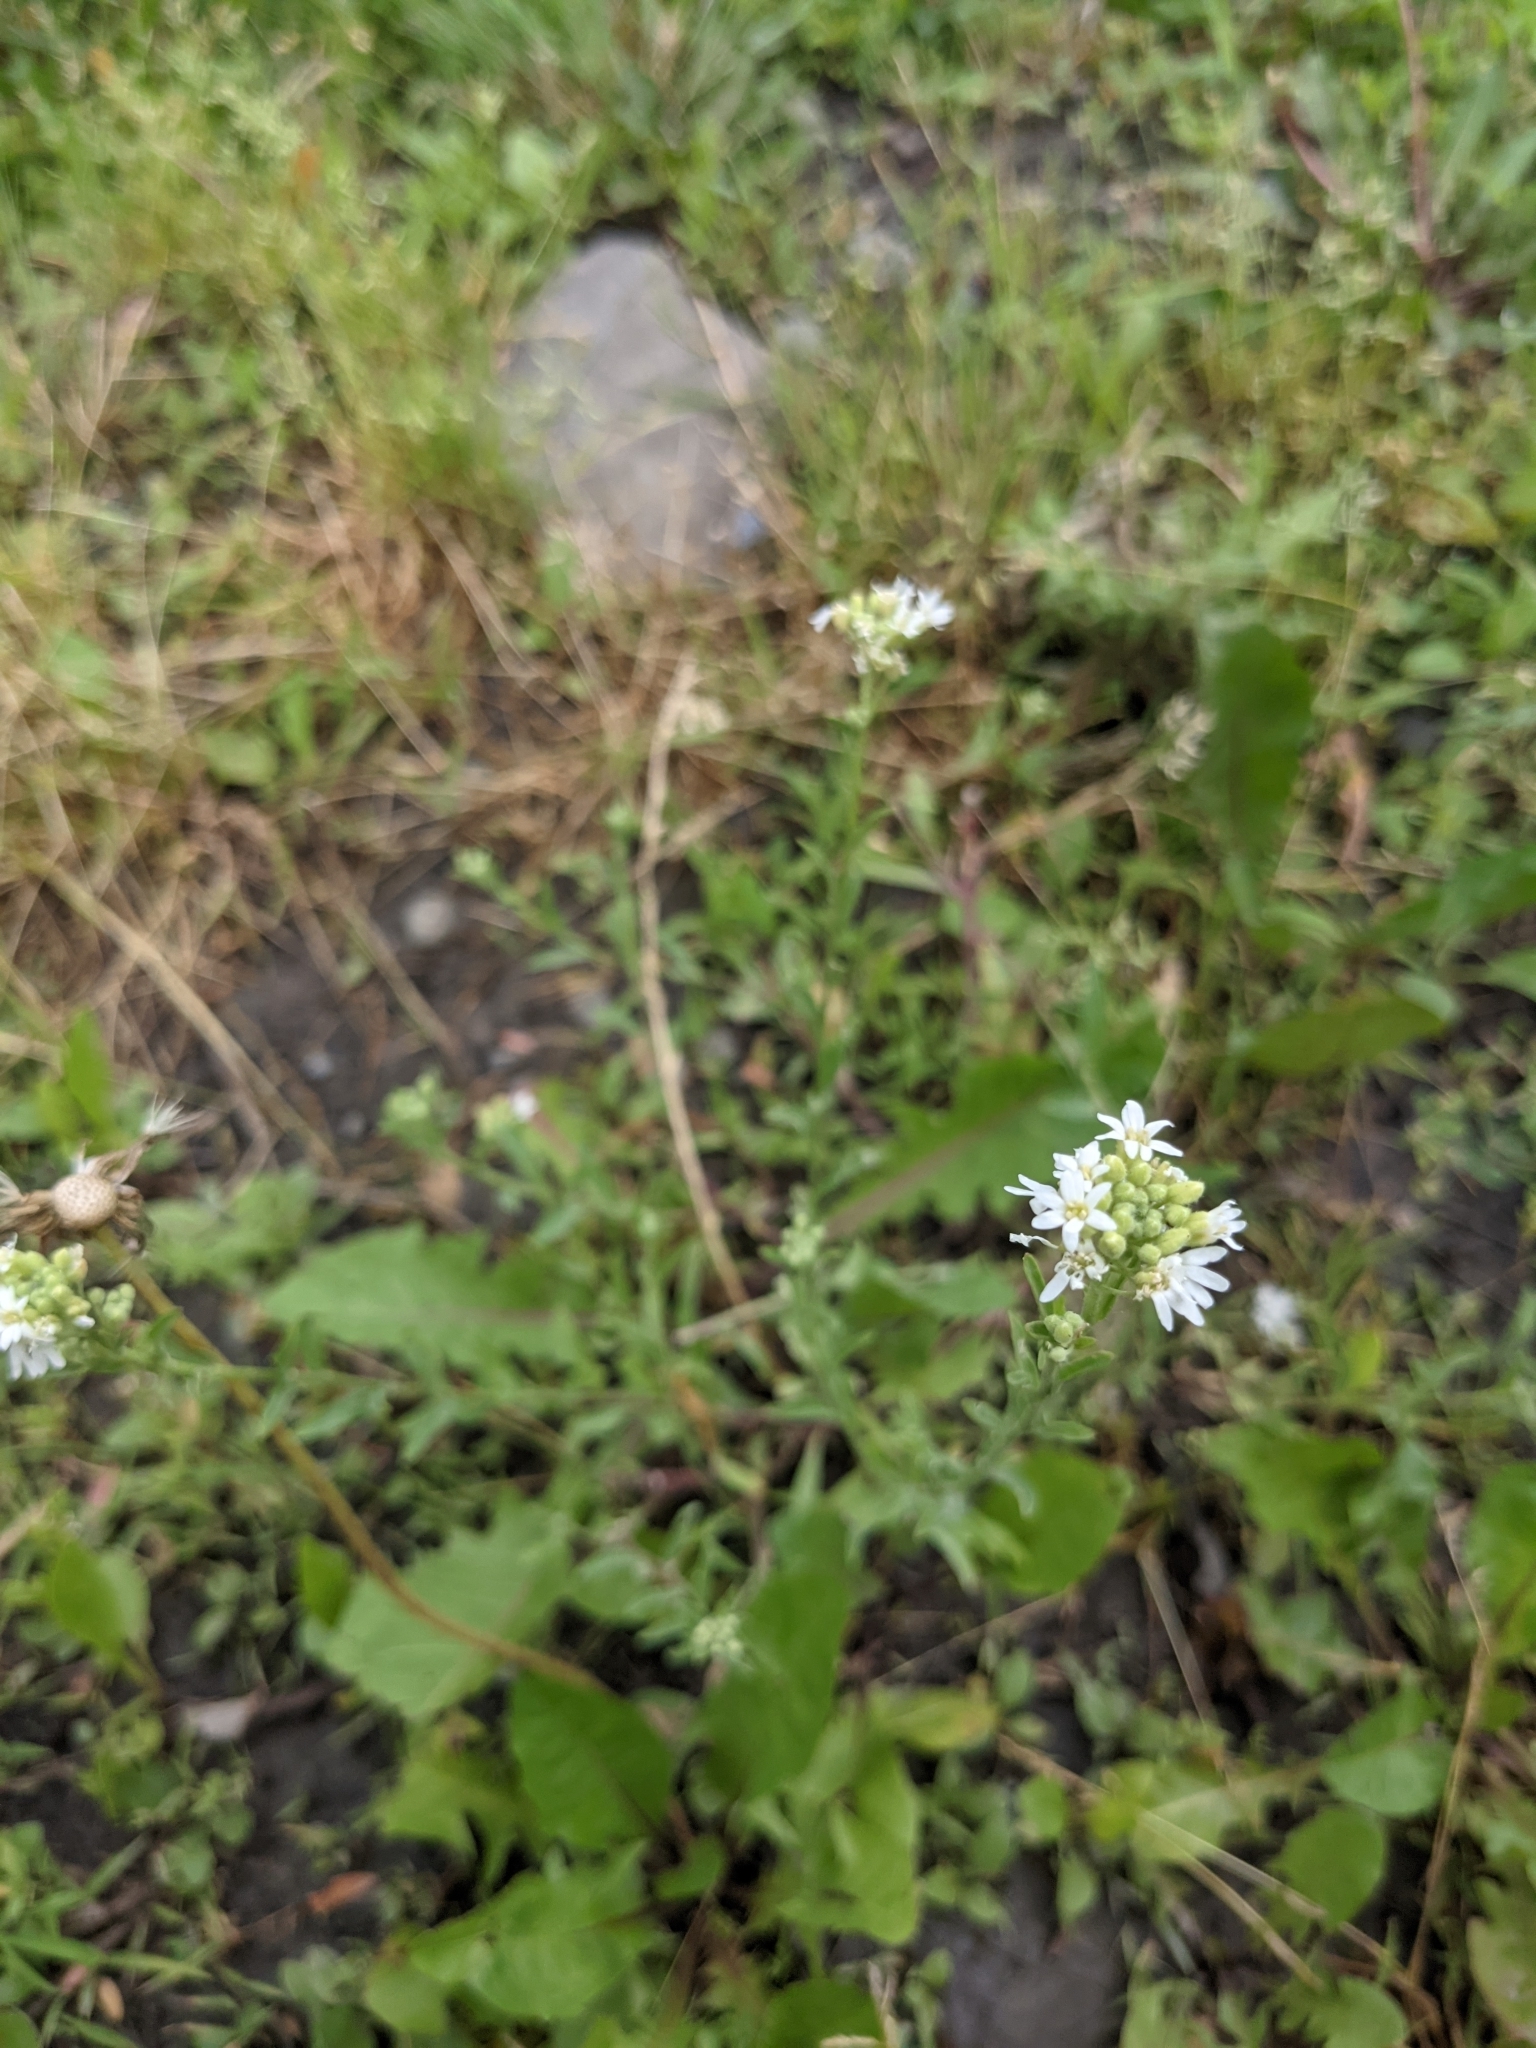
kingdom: Plantae
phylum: Tracheophyta
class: Magnoliopsida
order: Brassicales
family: Brassicaceae
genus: Berteroa
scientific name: Berteroa incana
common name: Hoary alison
